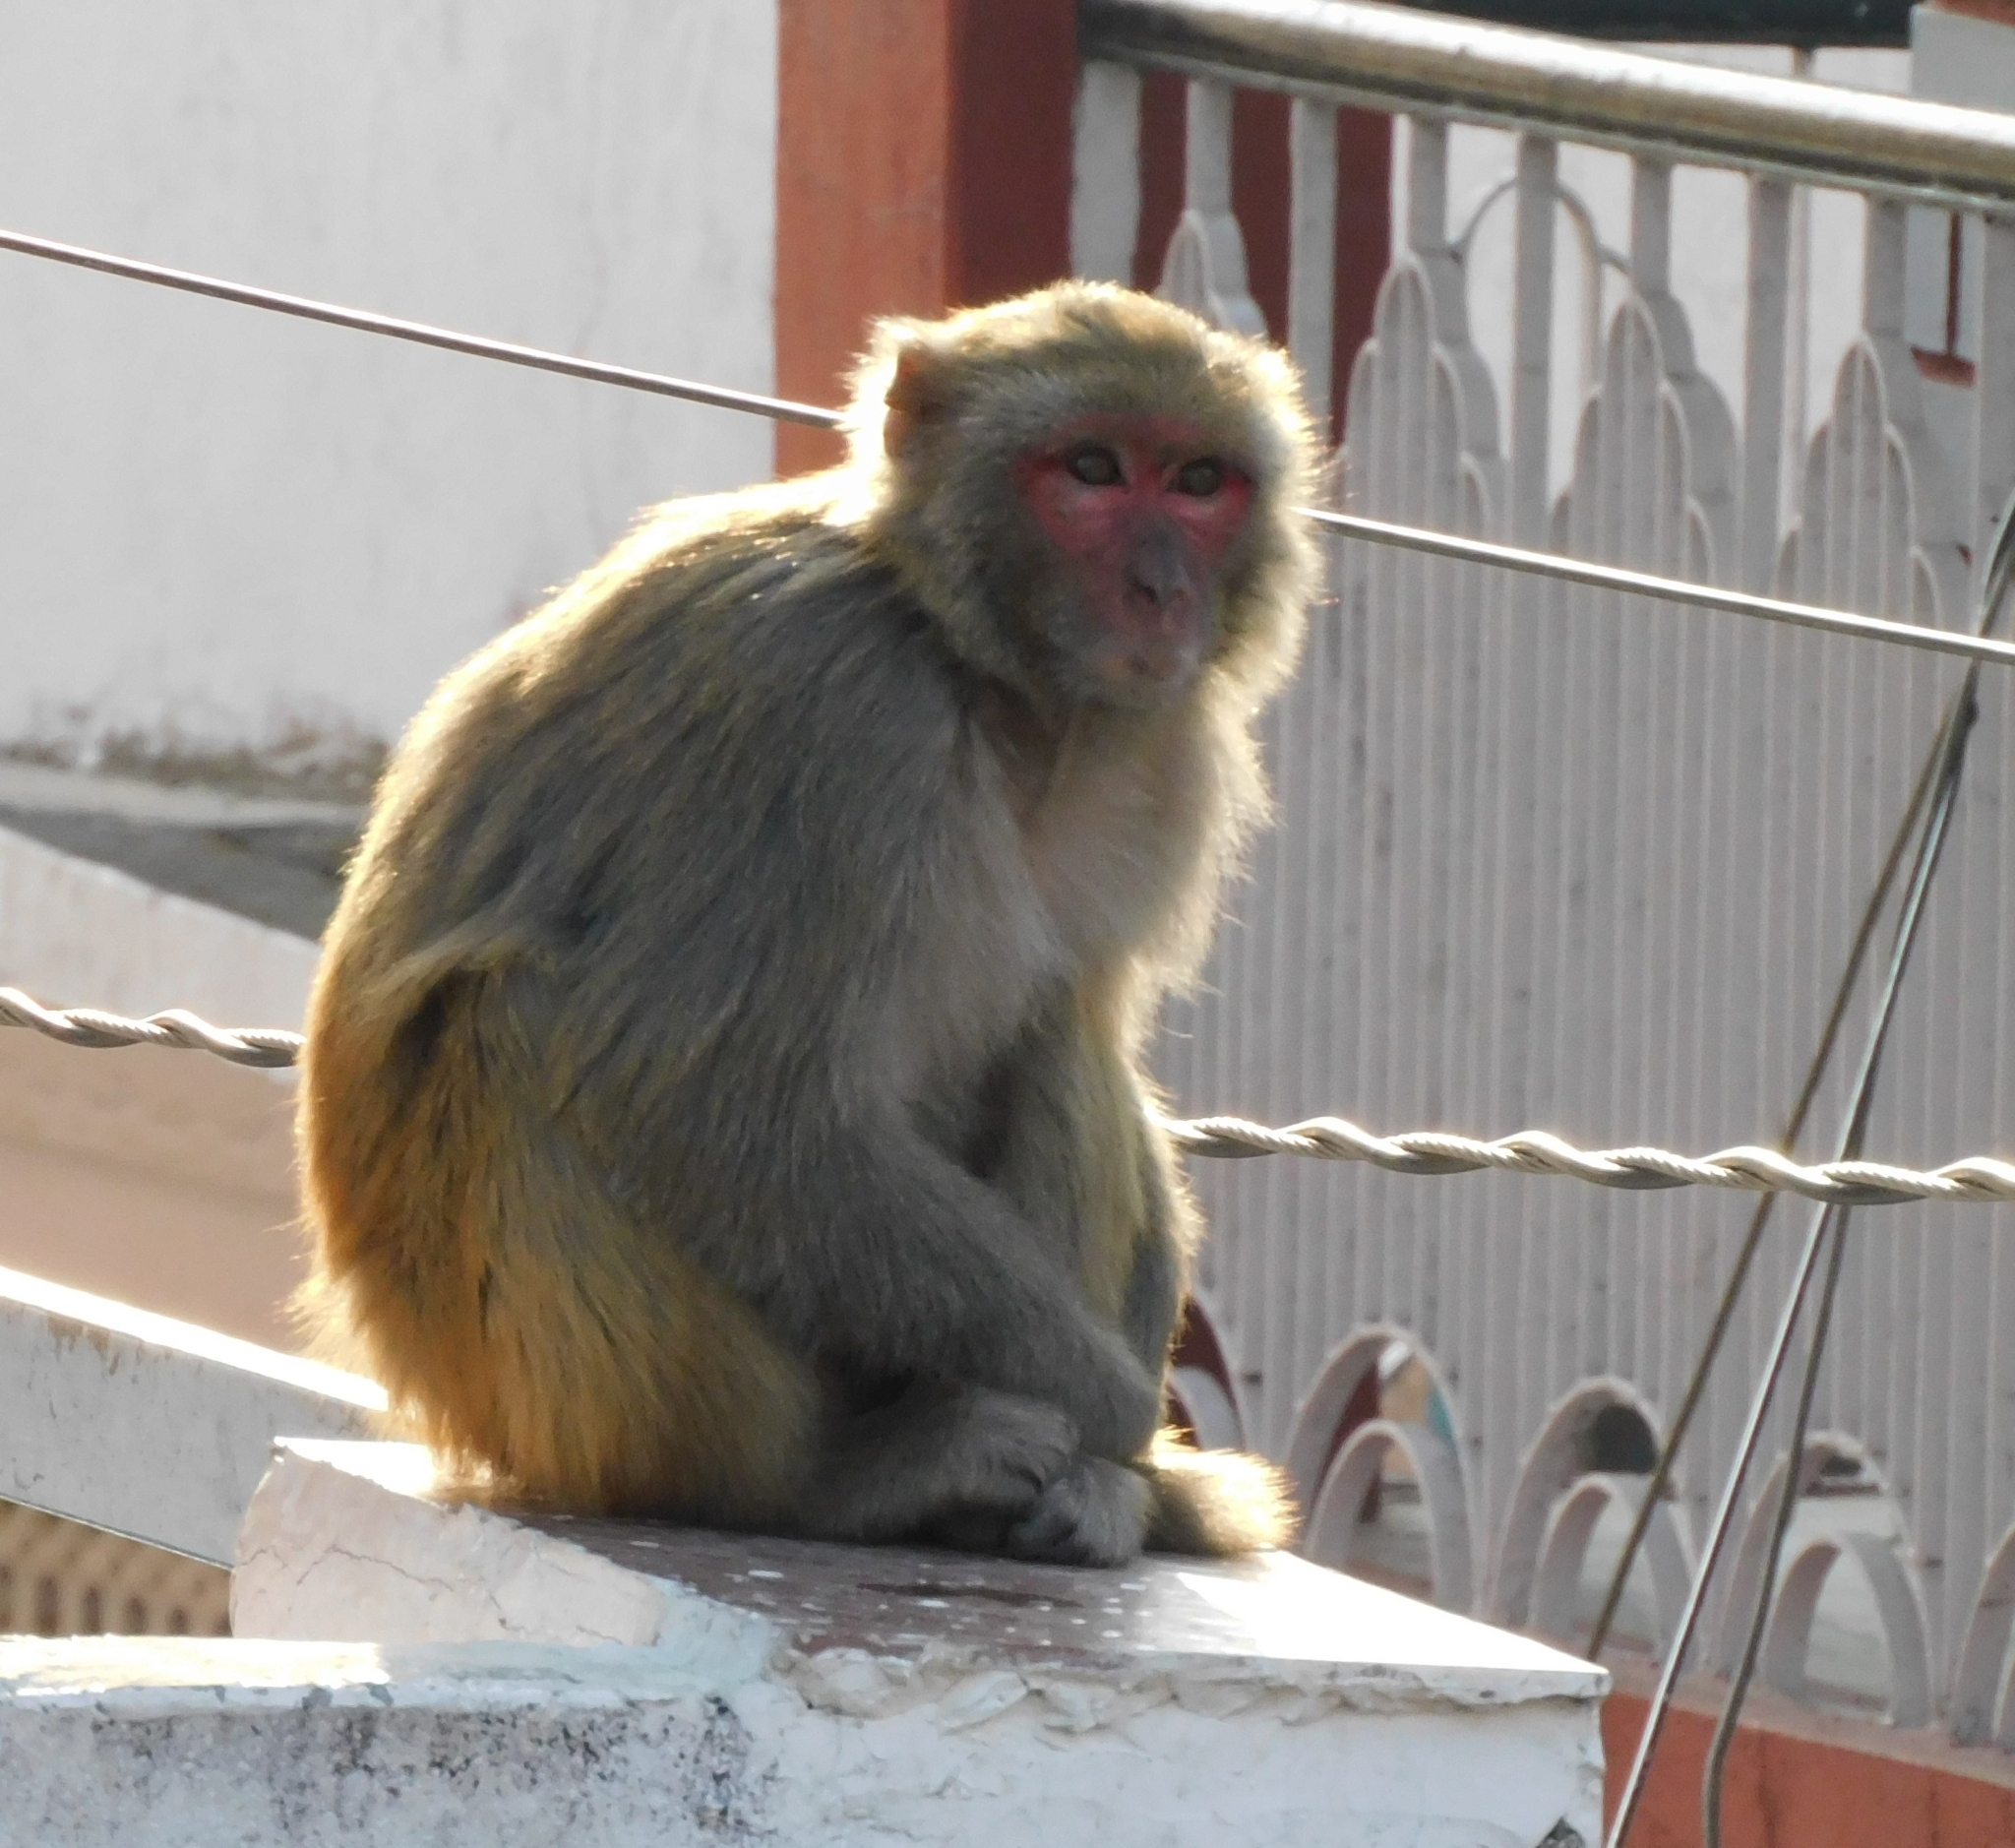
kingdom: Animalia
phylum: Chordata
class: Mammalia
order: Primates
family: Cercopithecidae
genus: Macaca
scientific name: Macaca mulatta
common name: Rhesus monkey
